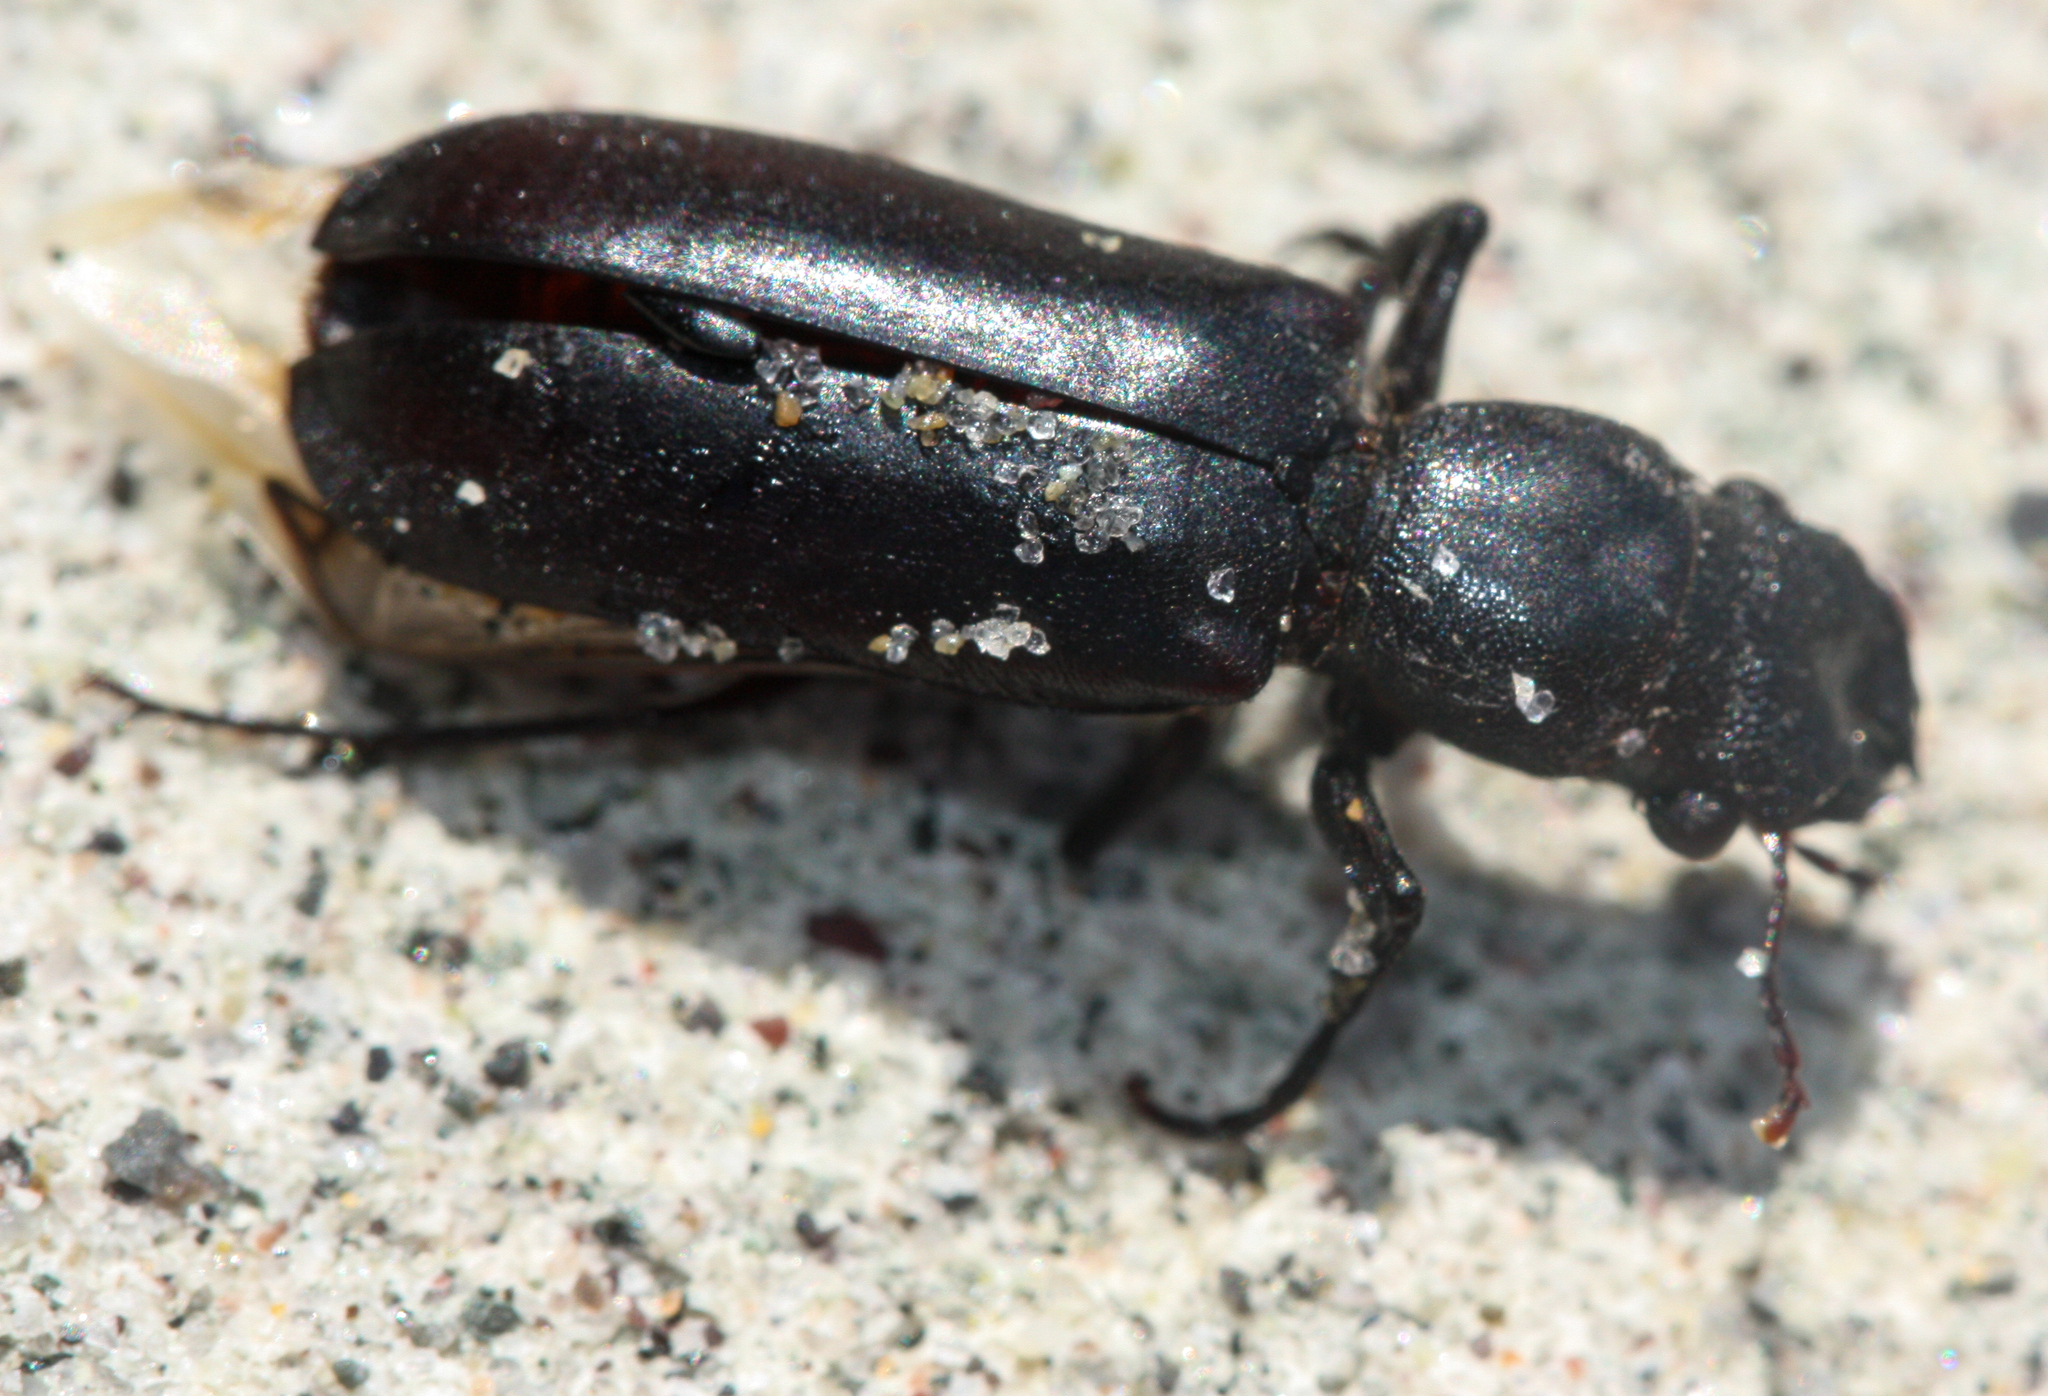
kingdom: Animalia
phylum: Arthropoda
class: Insecta
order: Coleoptera
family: Bostrichidae
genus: Polycaon
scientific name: Polycaon stoutii
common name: Powderpost beetle
